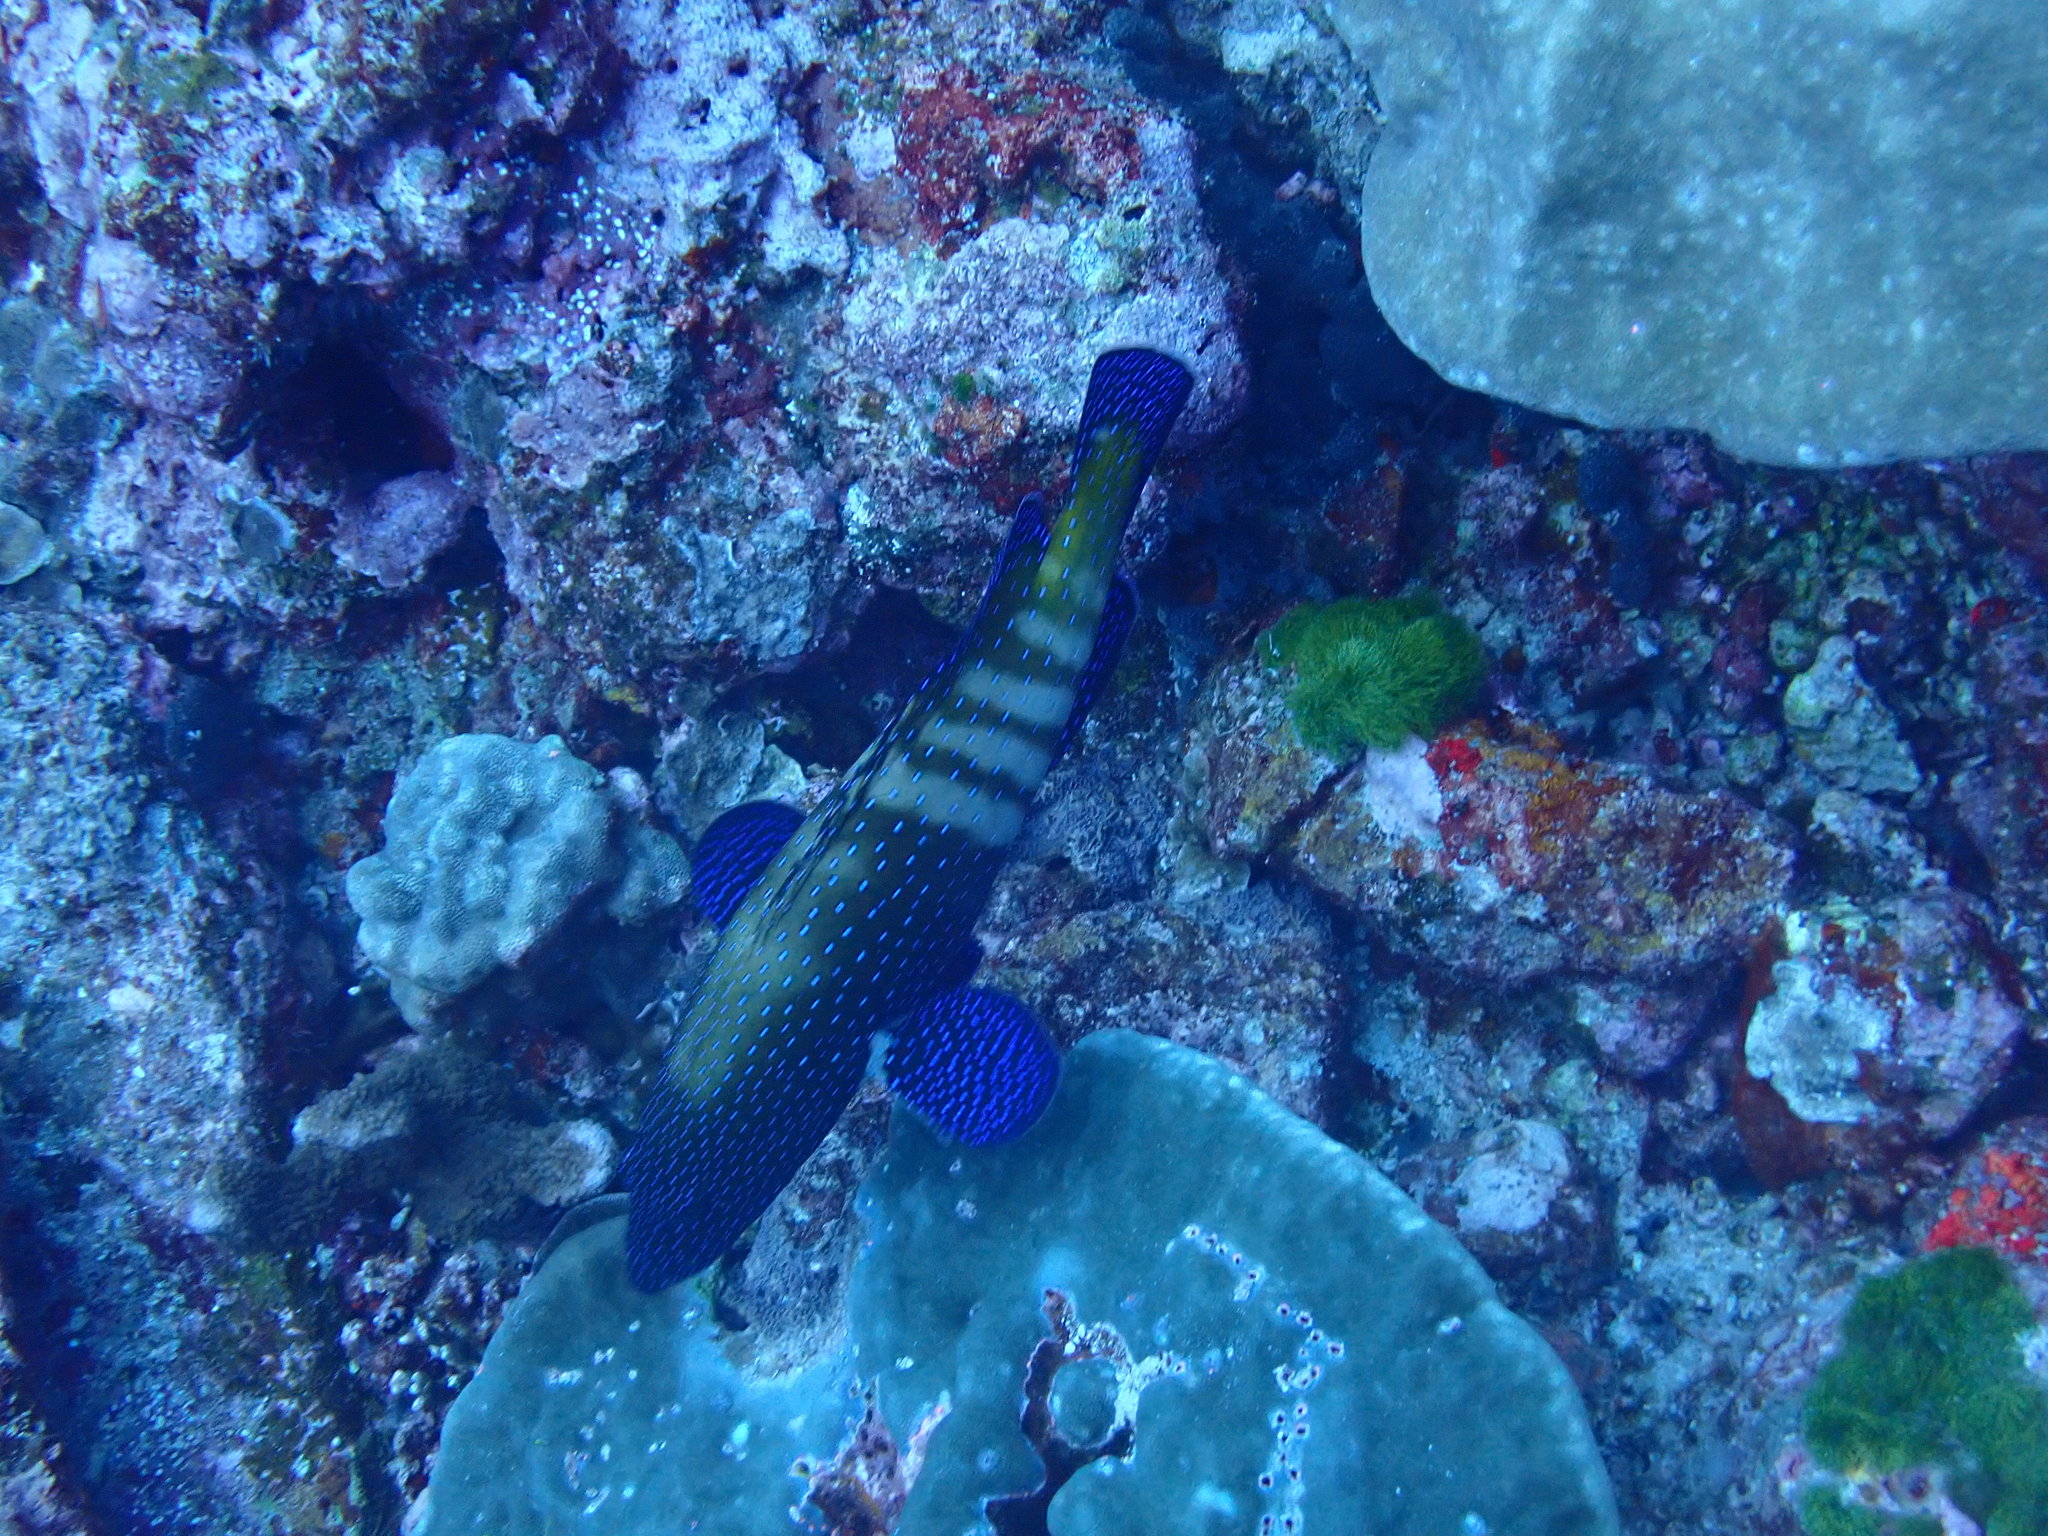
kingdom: Animalia
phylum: Chordata
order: Perciformes
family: Serranidae
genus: Cephalopholis
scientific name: Cephalopholis argus
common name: Peacock grouper
